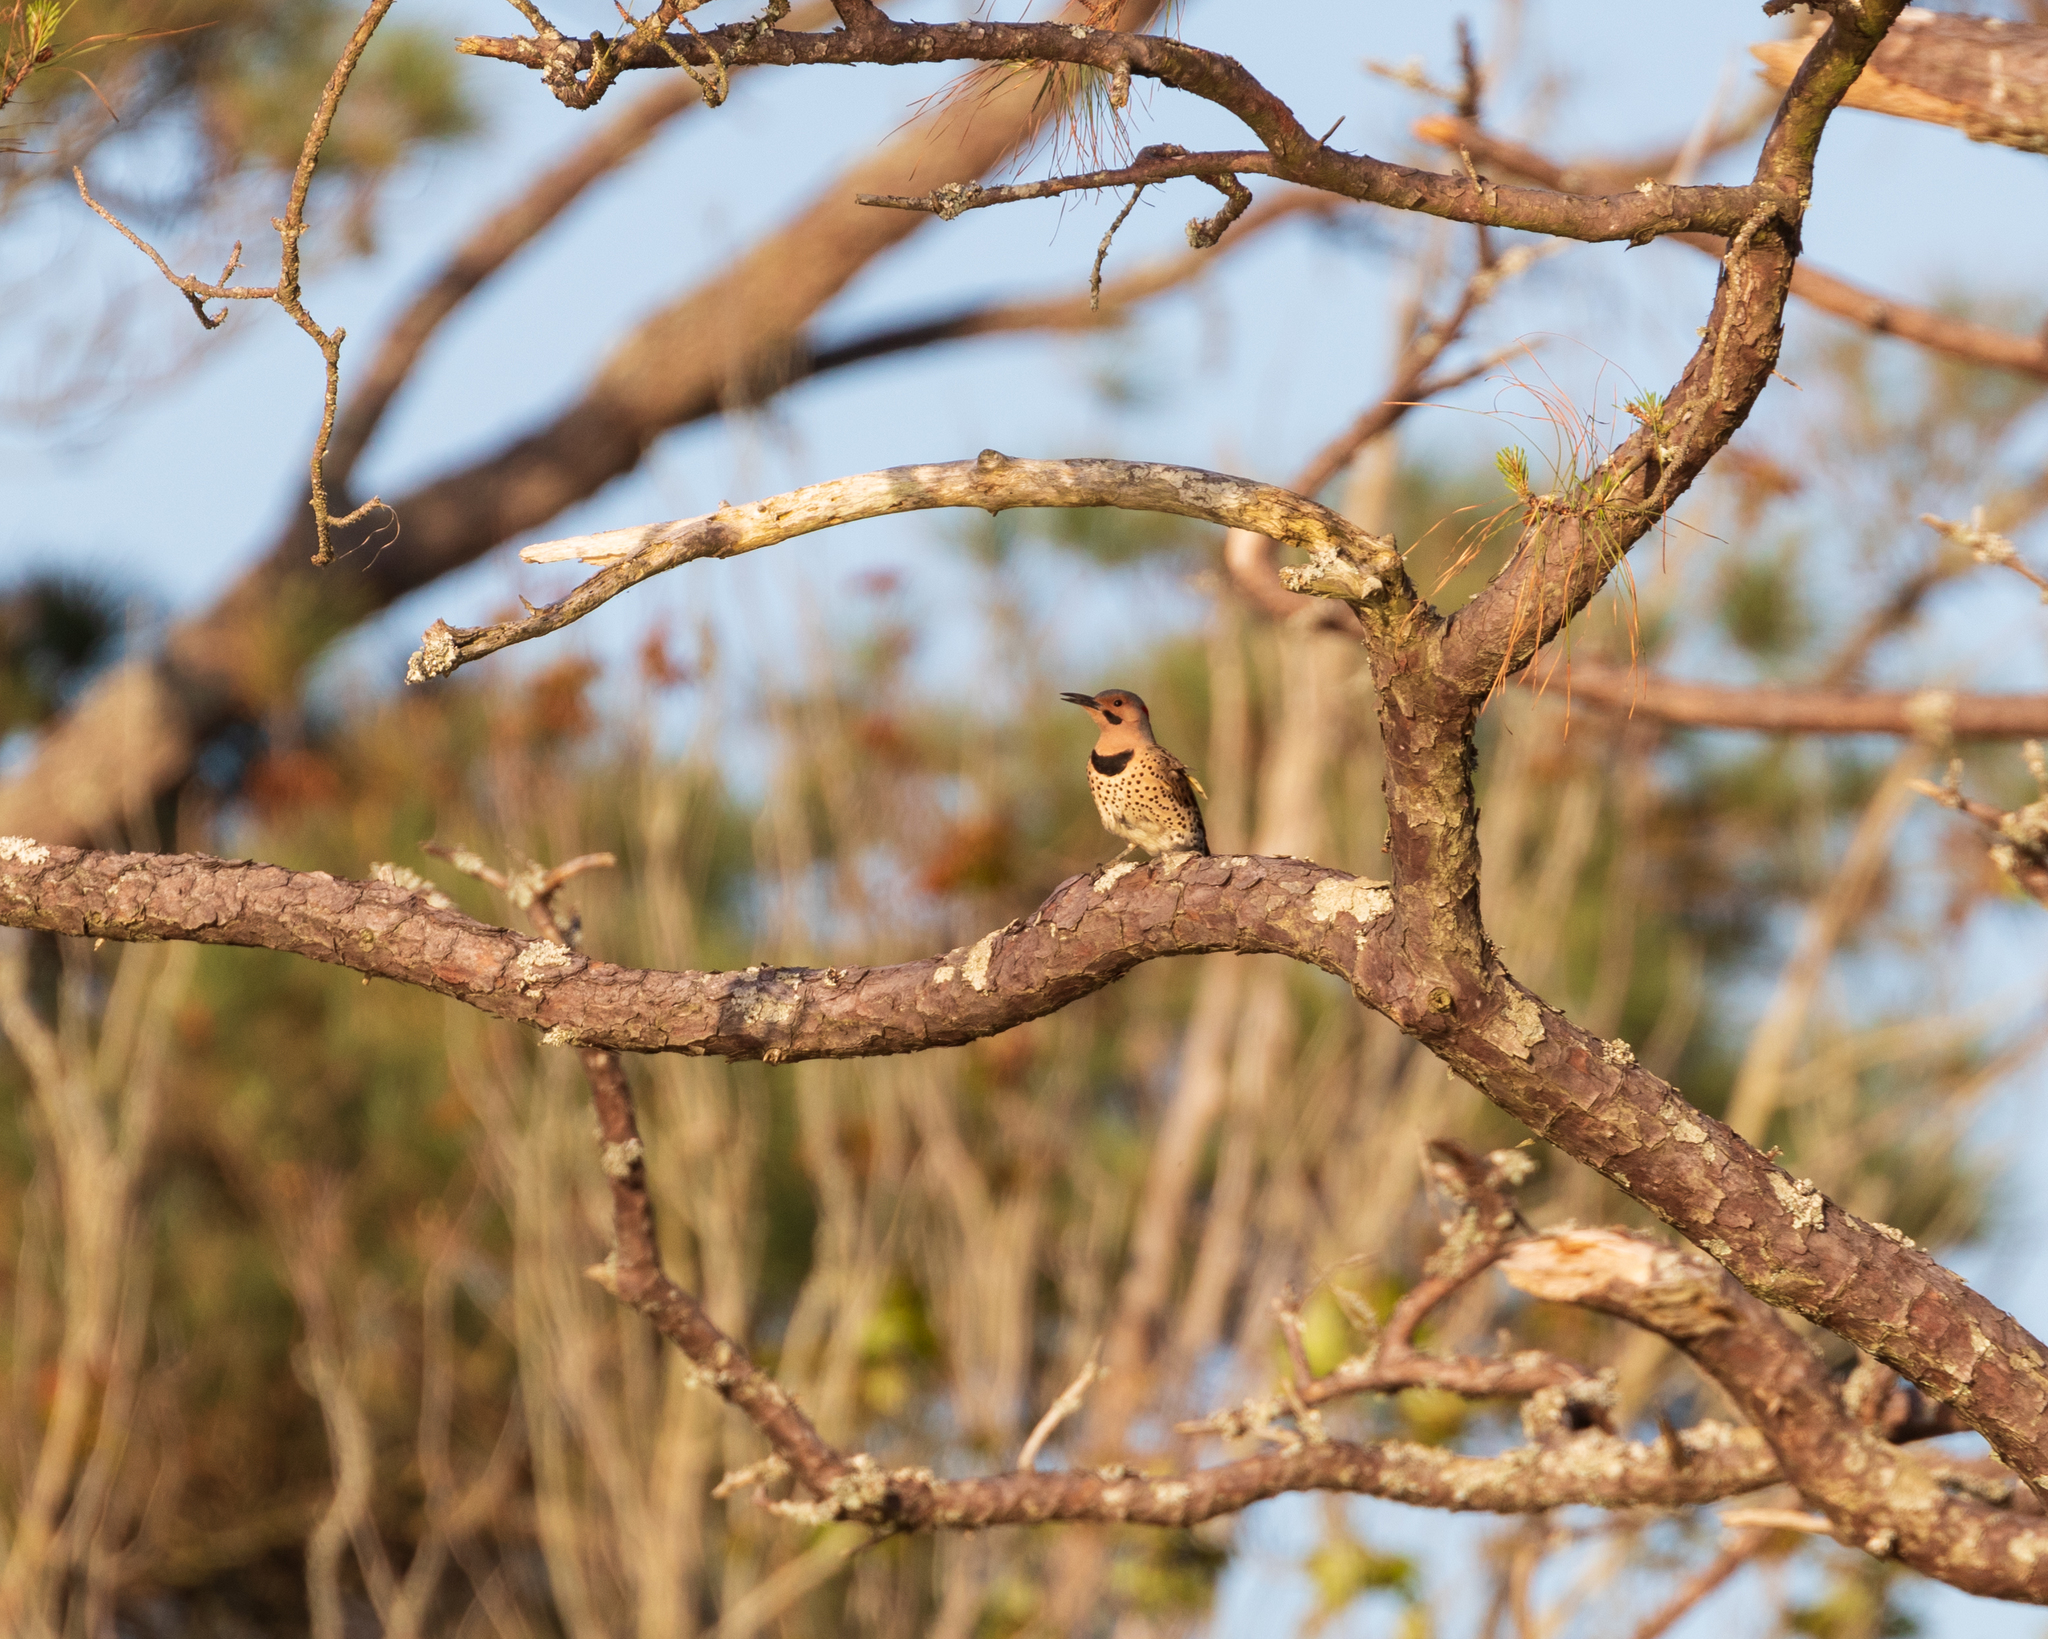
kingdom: Animalia
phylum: Chordata
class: Aves
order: Piciformes
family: Picidae
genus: Colaptes
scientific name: Colaptes auratus
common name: Northern flicker
